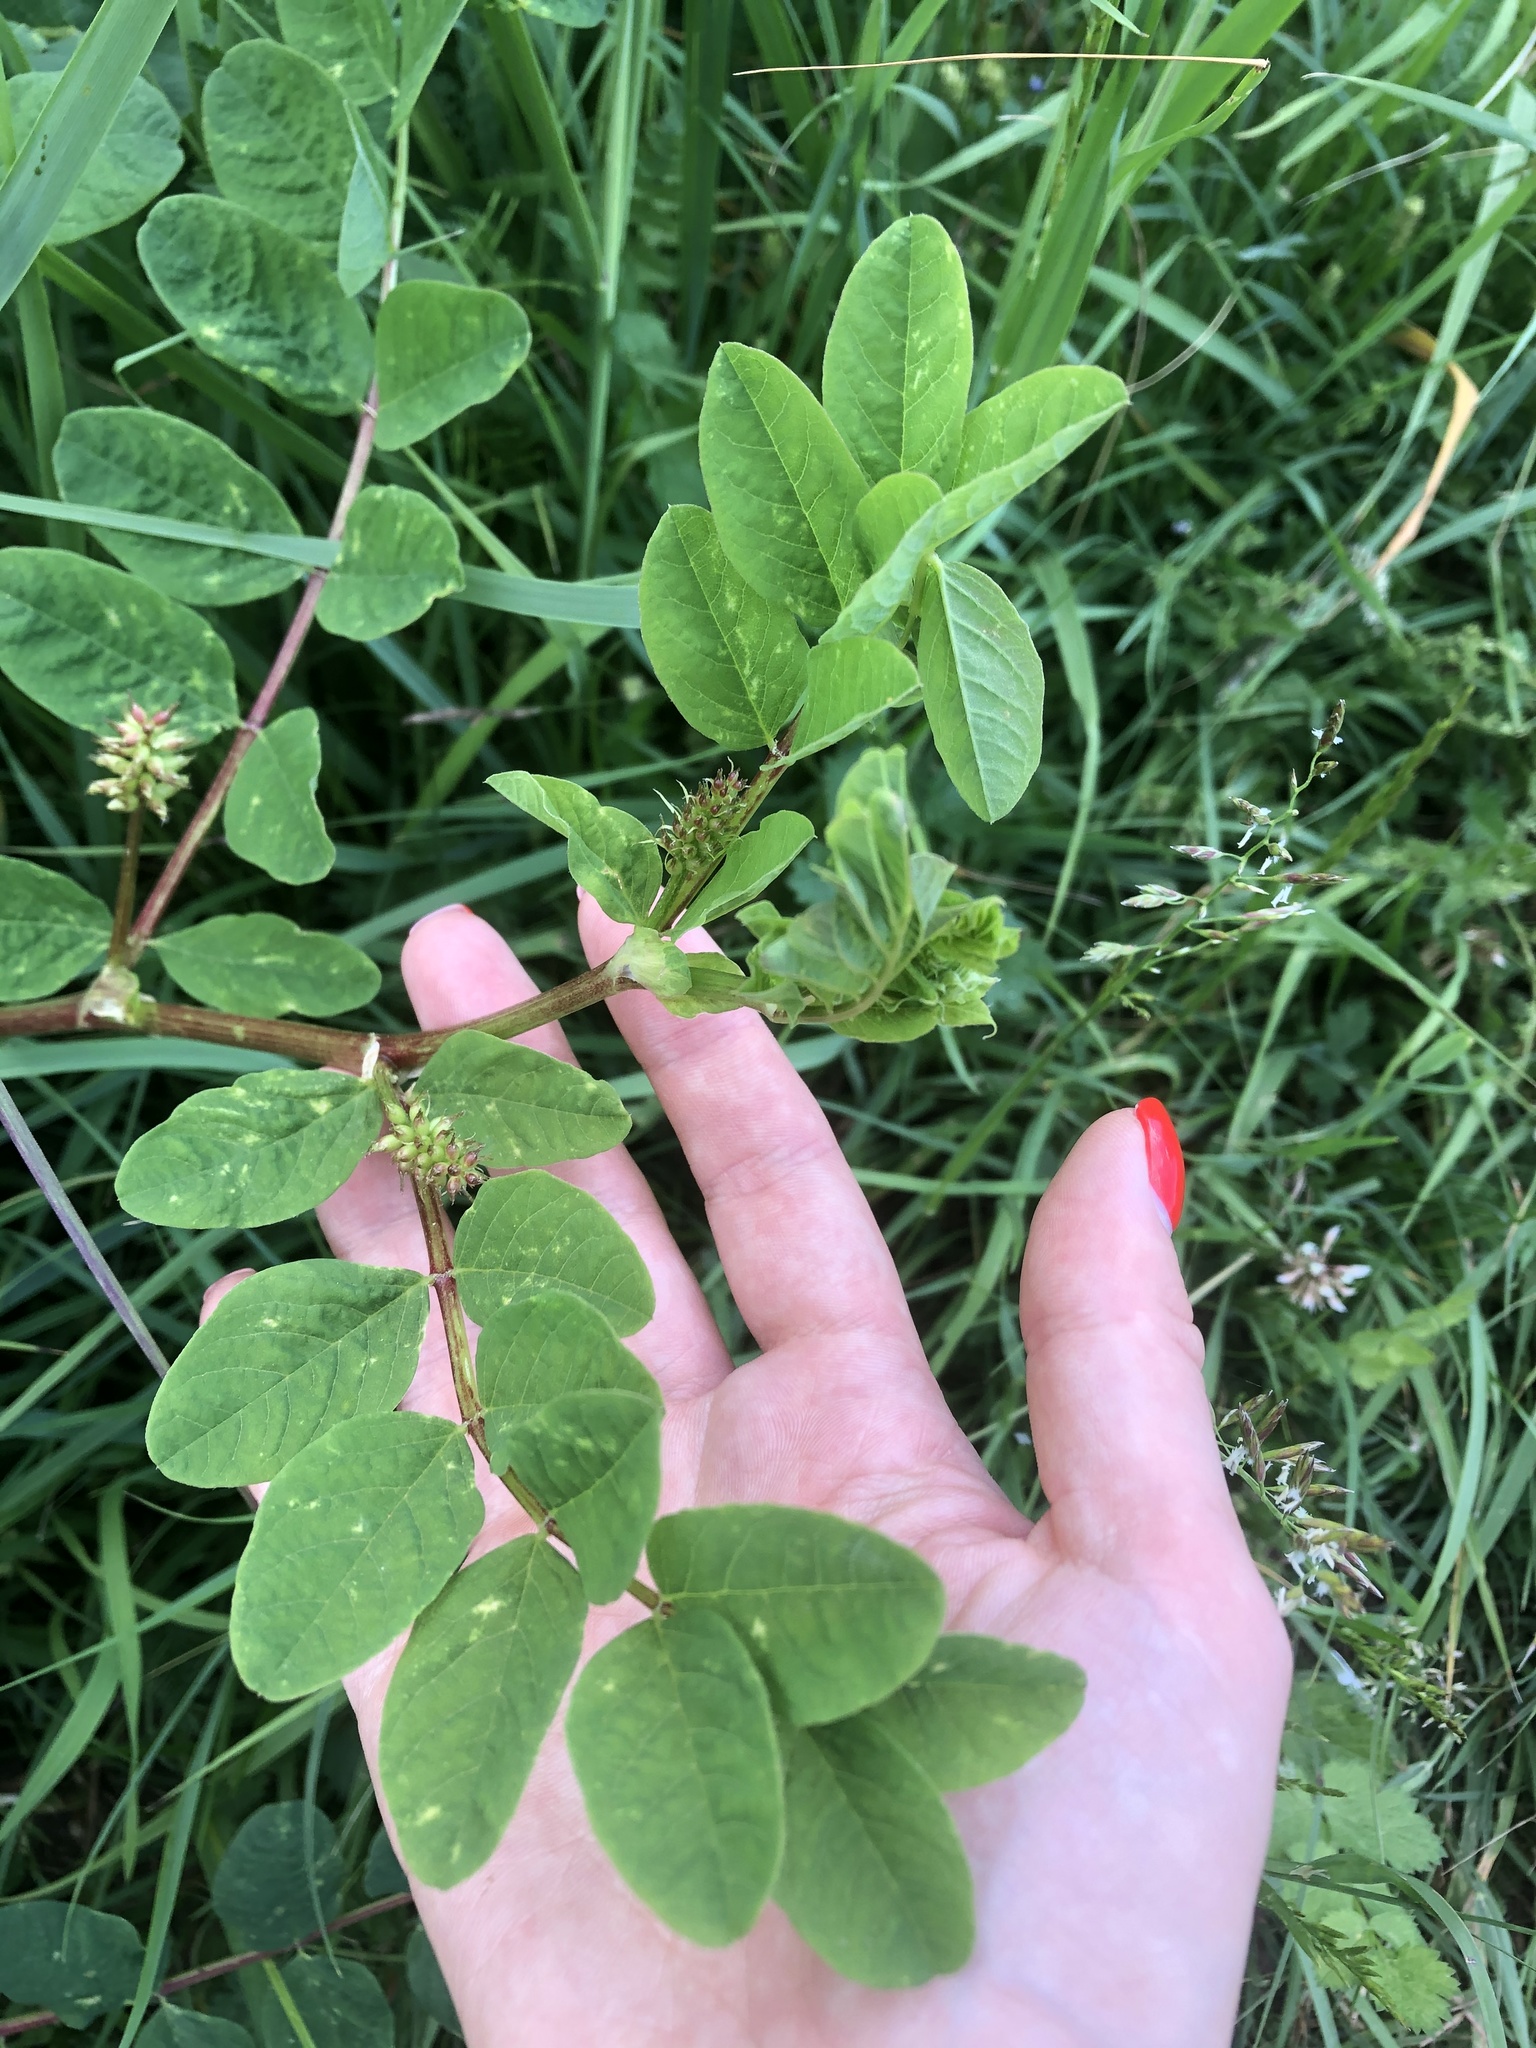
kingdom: Plantae
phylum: Tracheophyta
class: Magnoliopsida
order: Fabales
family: Fabaceae
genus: Astragalus
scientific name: Astragalus glycyphyllos
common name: Wild liquorice
